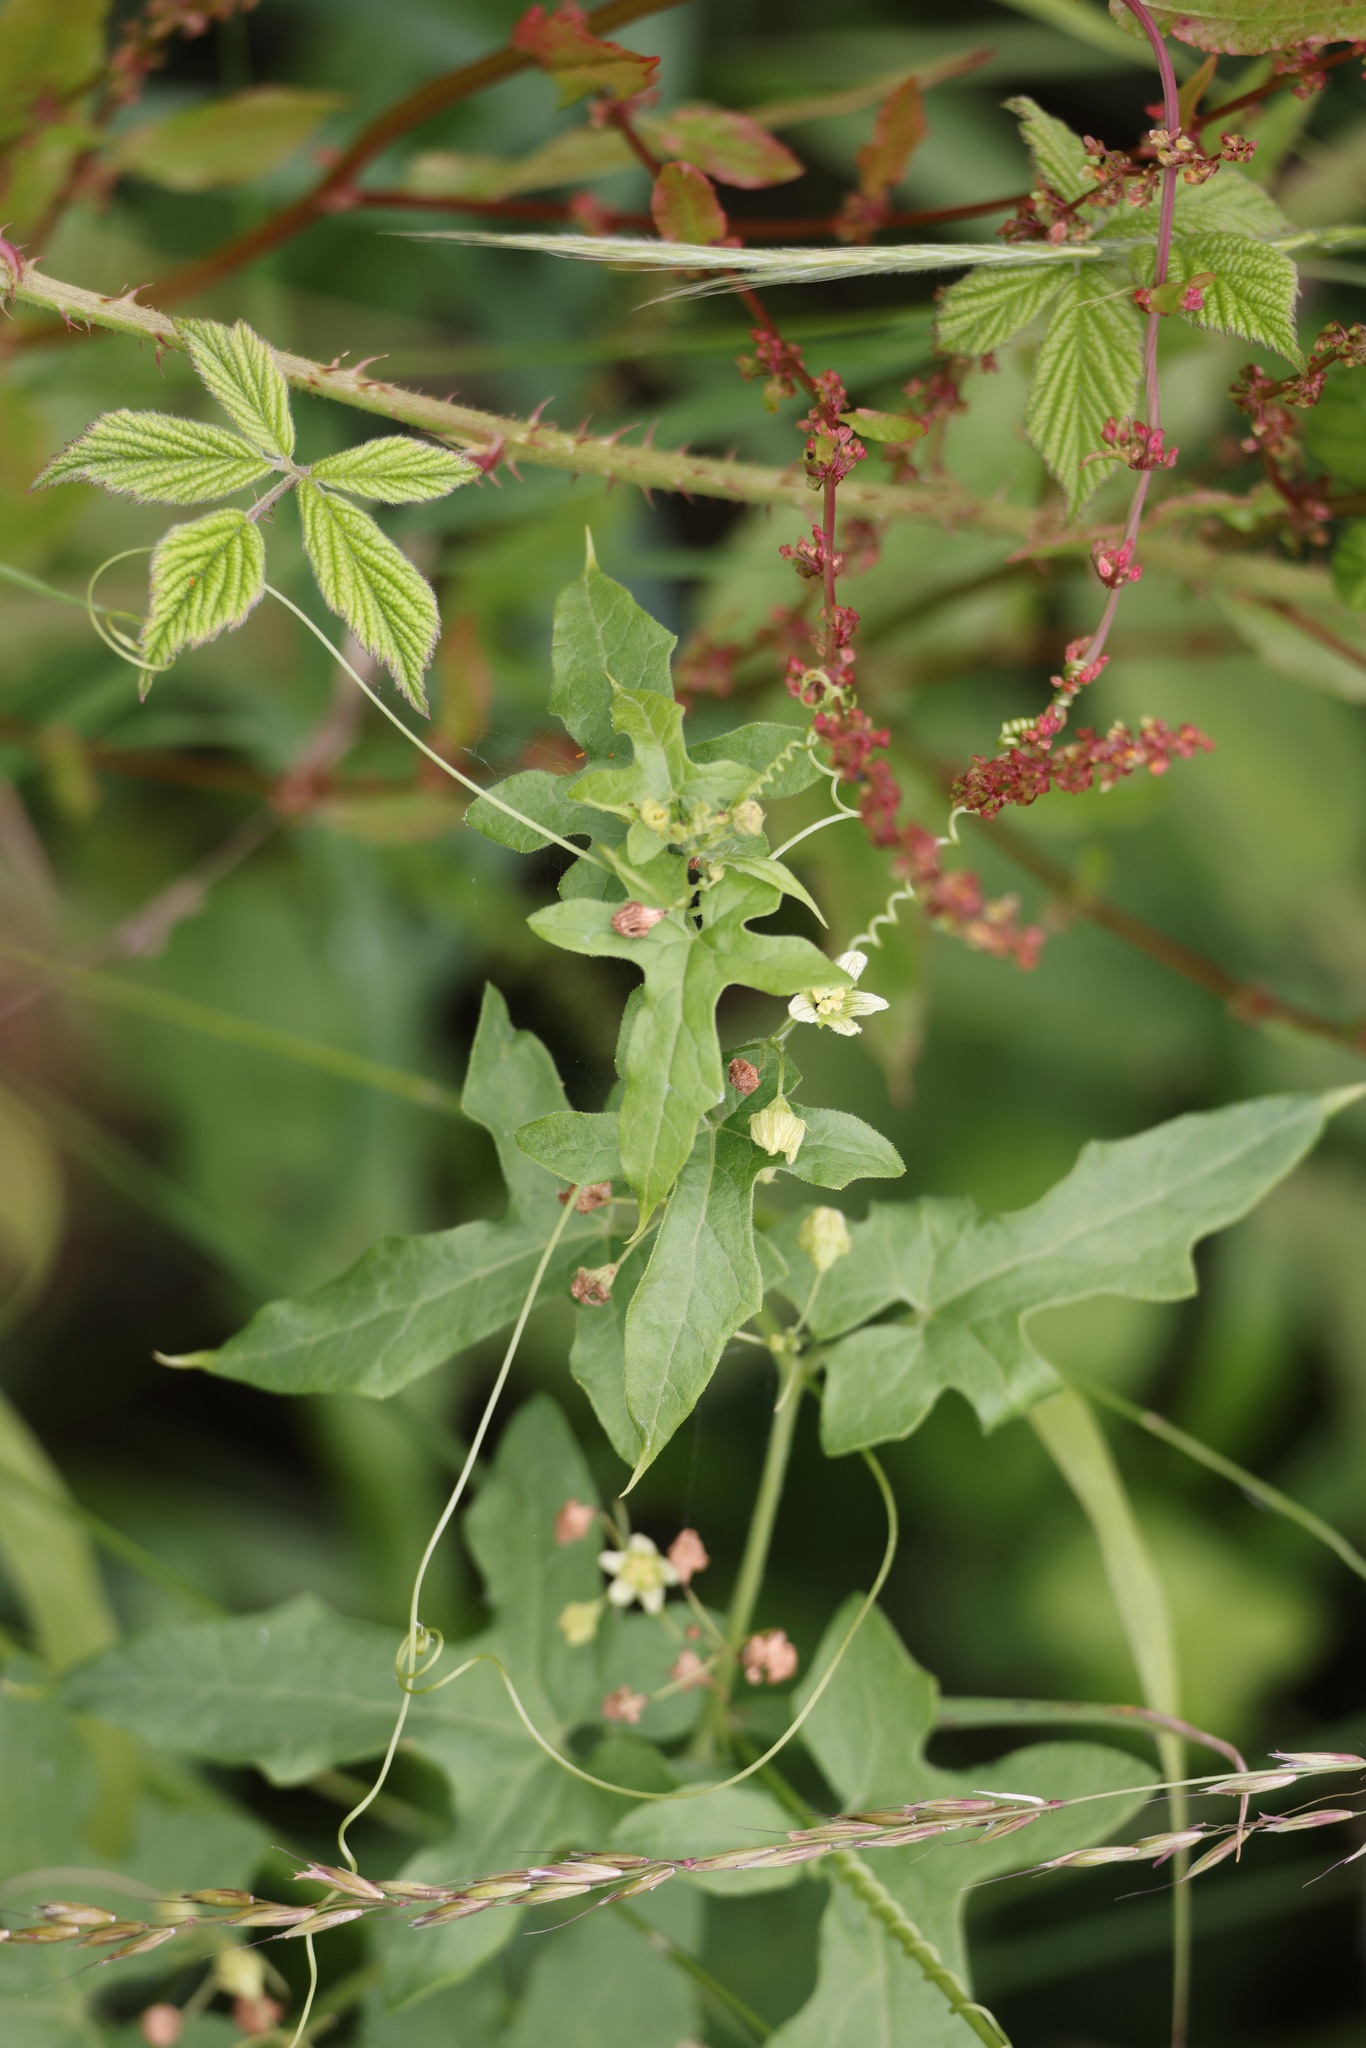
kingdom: Plantae
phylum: Tracheophyta
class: Magnoliopsida
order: Cucurbitales
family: Cucurbitaceae
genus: Bryonia
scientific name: Bryonia cretica
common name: Cretan bryony
